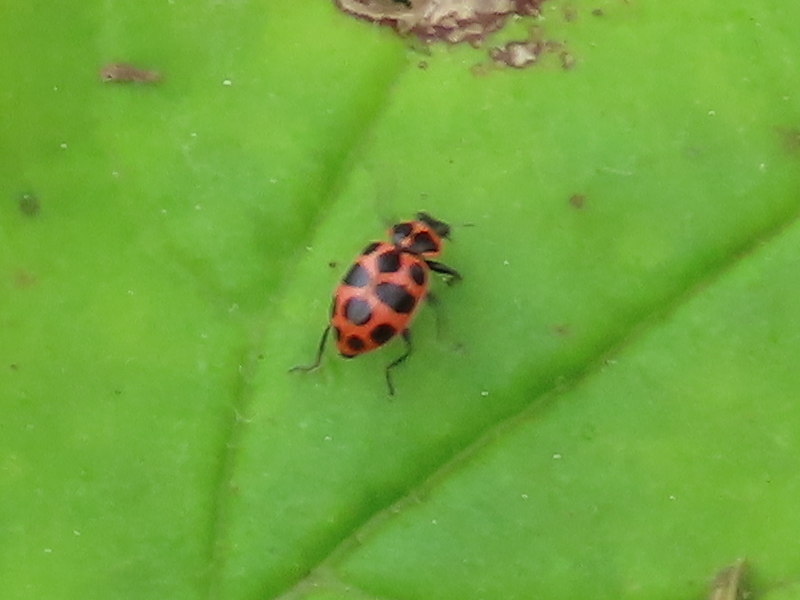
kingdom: Animalia
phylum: Arthropoda
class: Insecta
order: Coleoptera
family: Coccinellidae
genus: Coleomegilla
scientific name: Coleomegilla maculata
